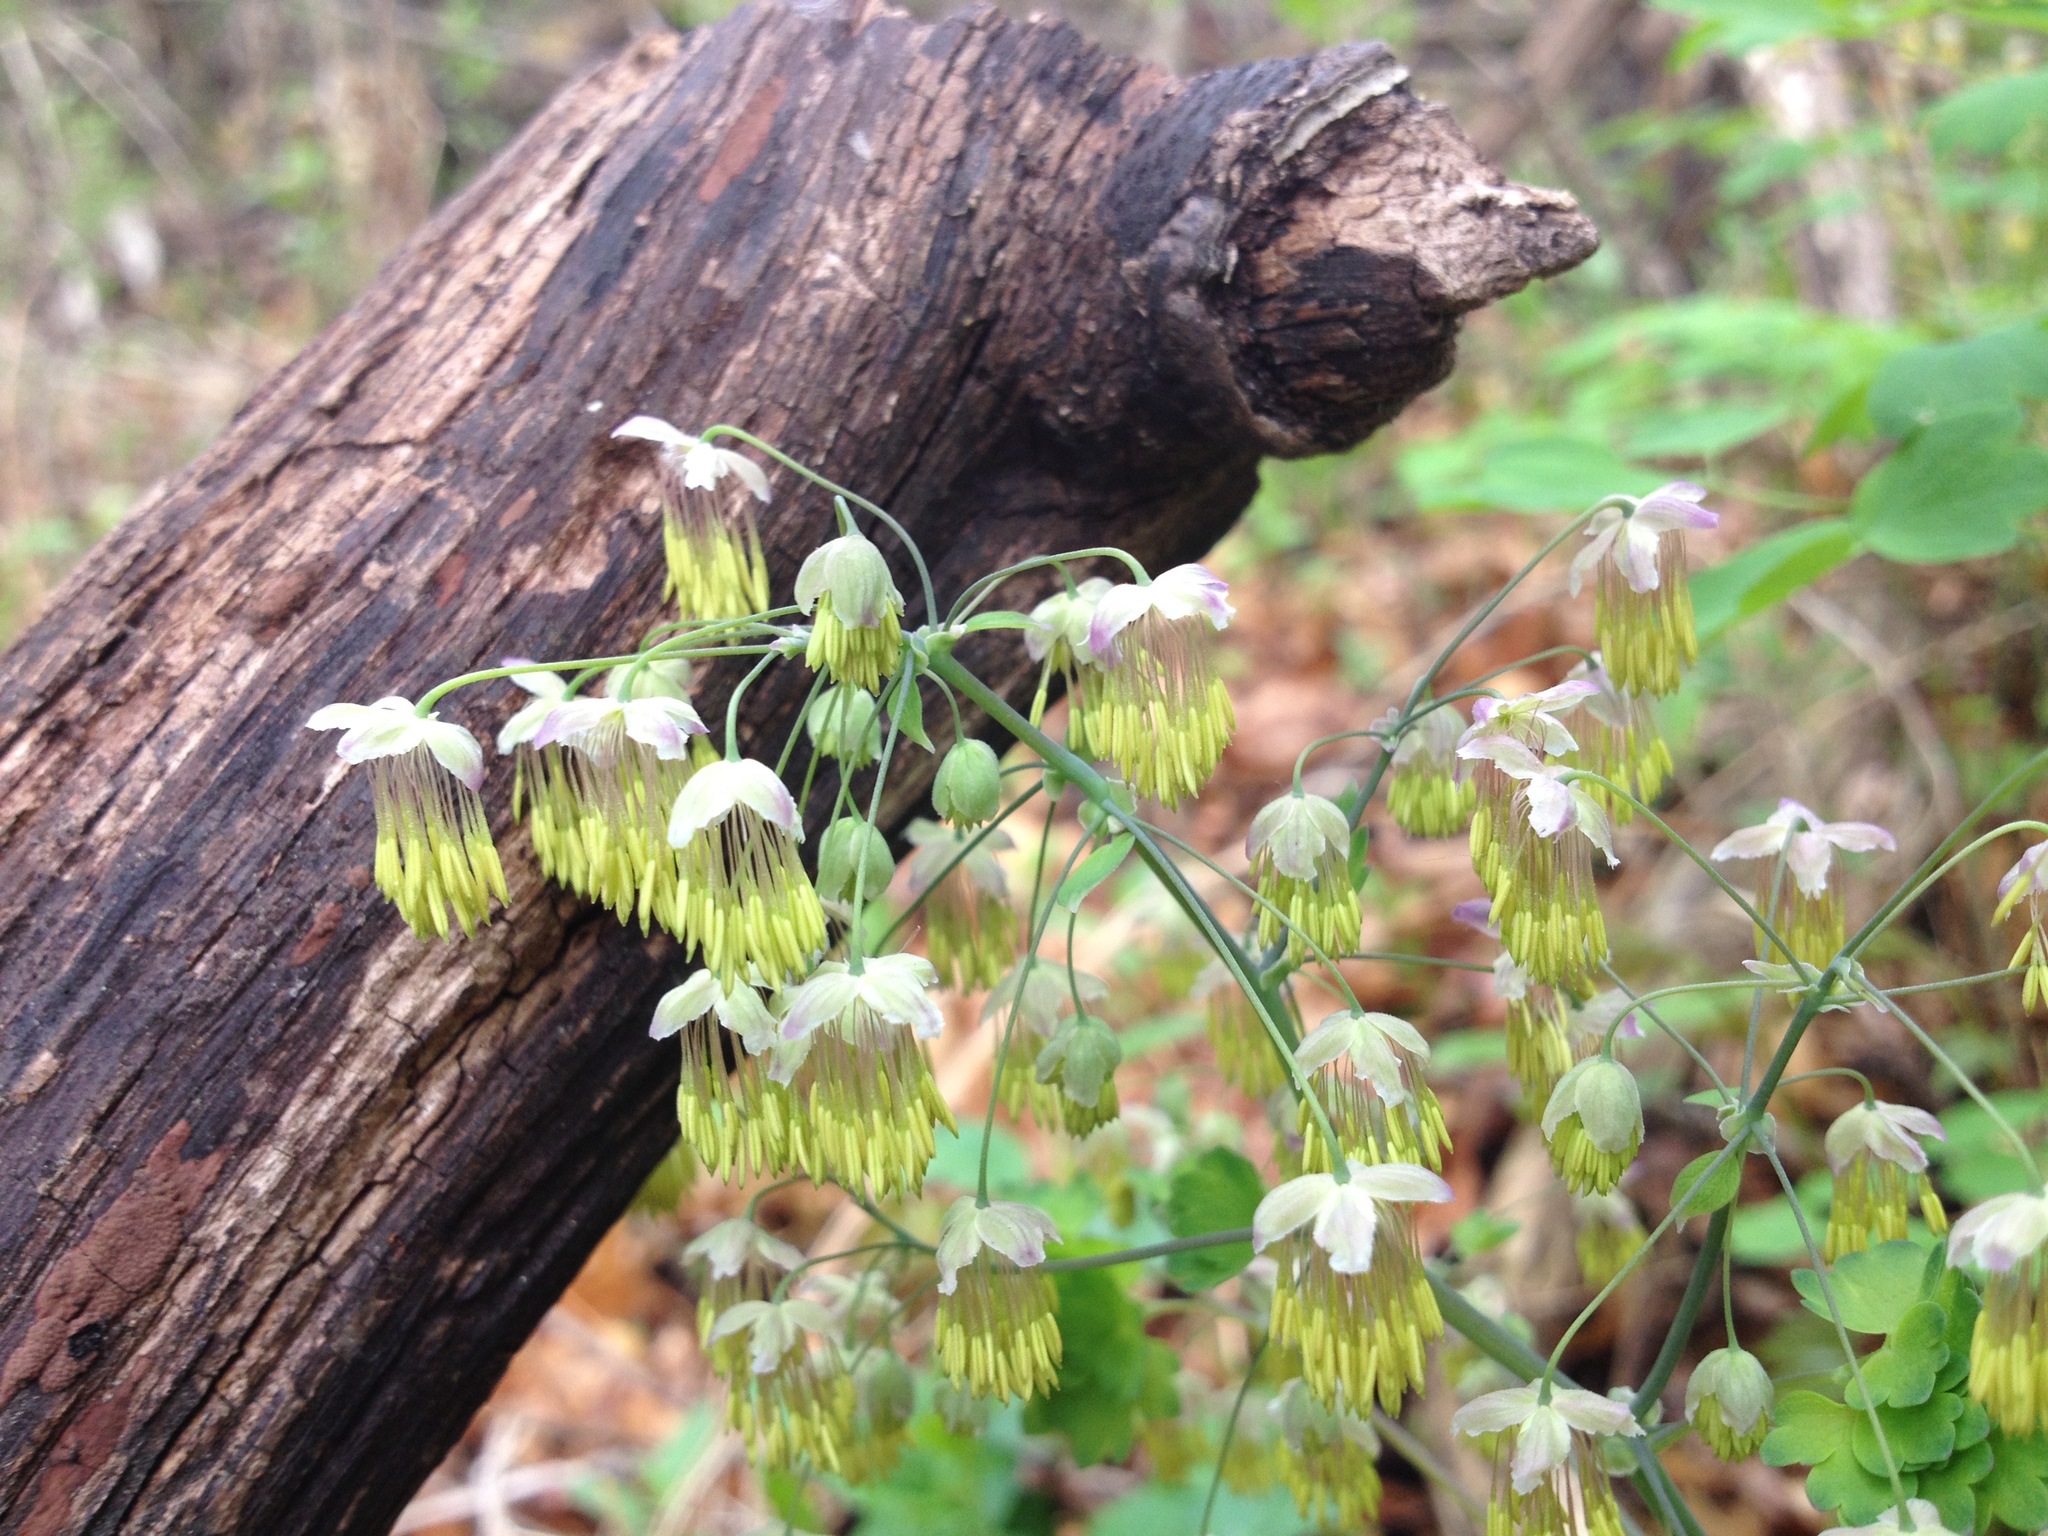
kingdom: Plantae
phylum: Tracheophyta
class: Magnoliopsida
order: Ranunculales
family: Ranunculaceae
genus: Thalictrum
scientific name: Thalictrum dioicum
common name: Early meadow-rue
